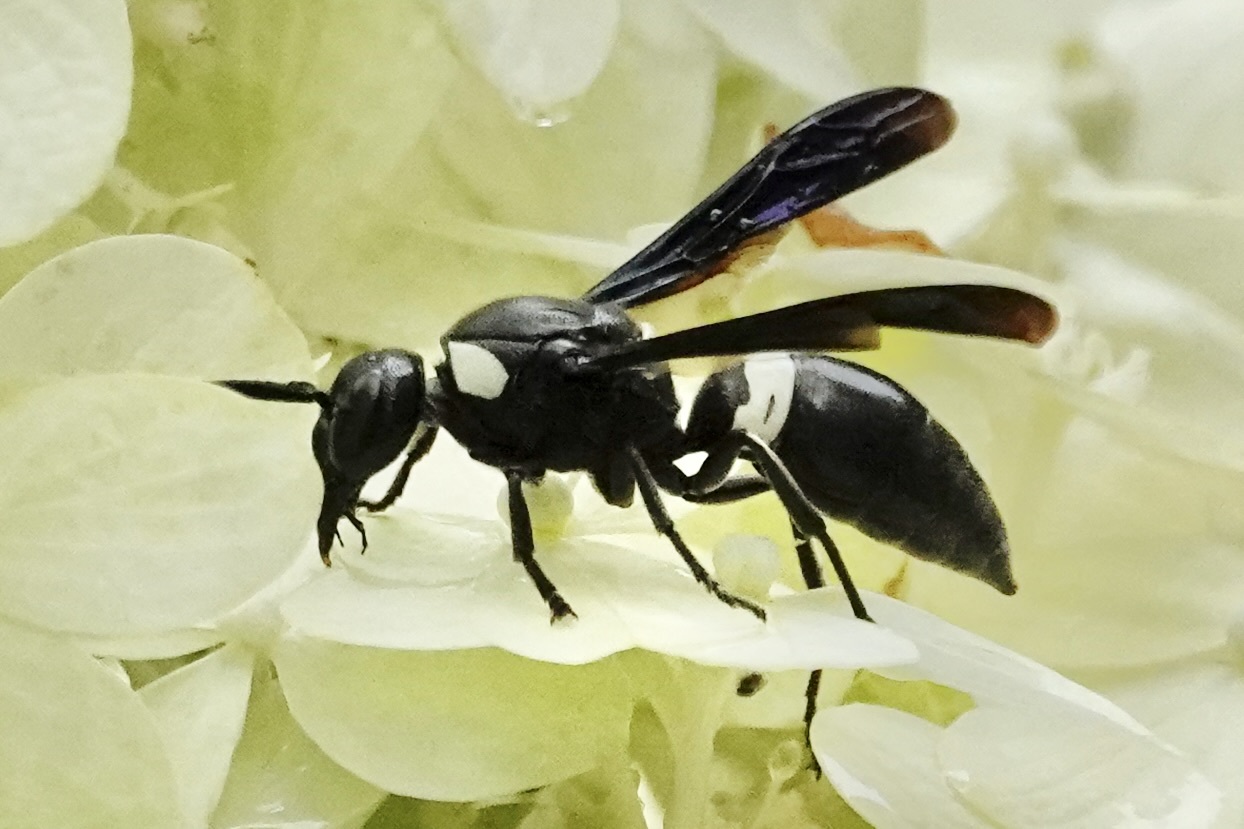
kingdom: Animalia
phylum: Arthropoda
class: Insecta
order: Hymenoptera
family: Eumenidae
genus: Monobia
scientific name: Monobia quadridens
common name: Four-toothed mason wasp
